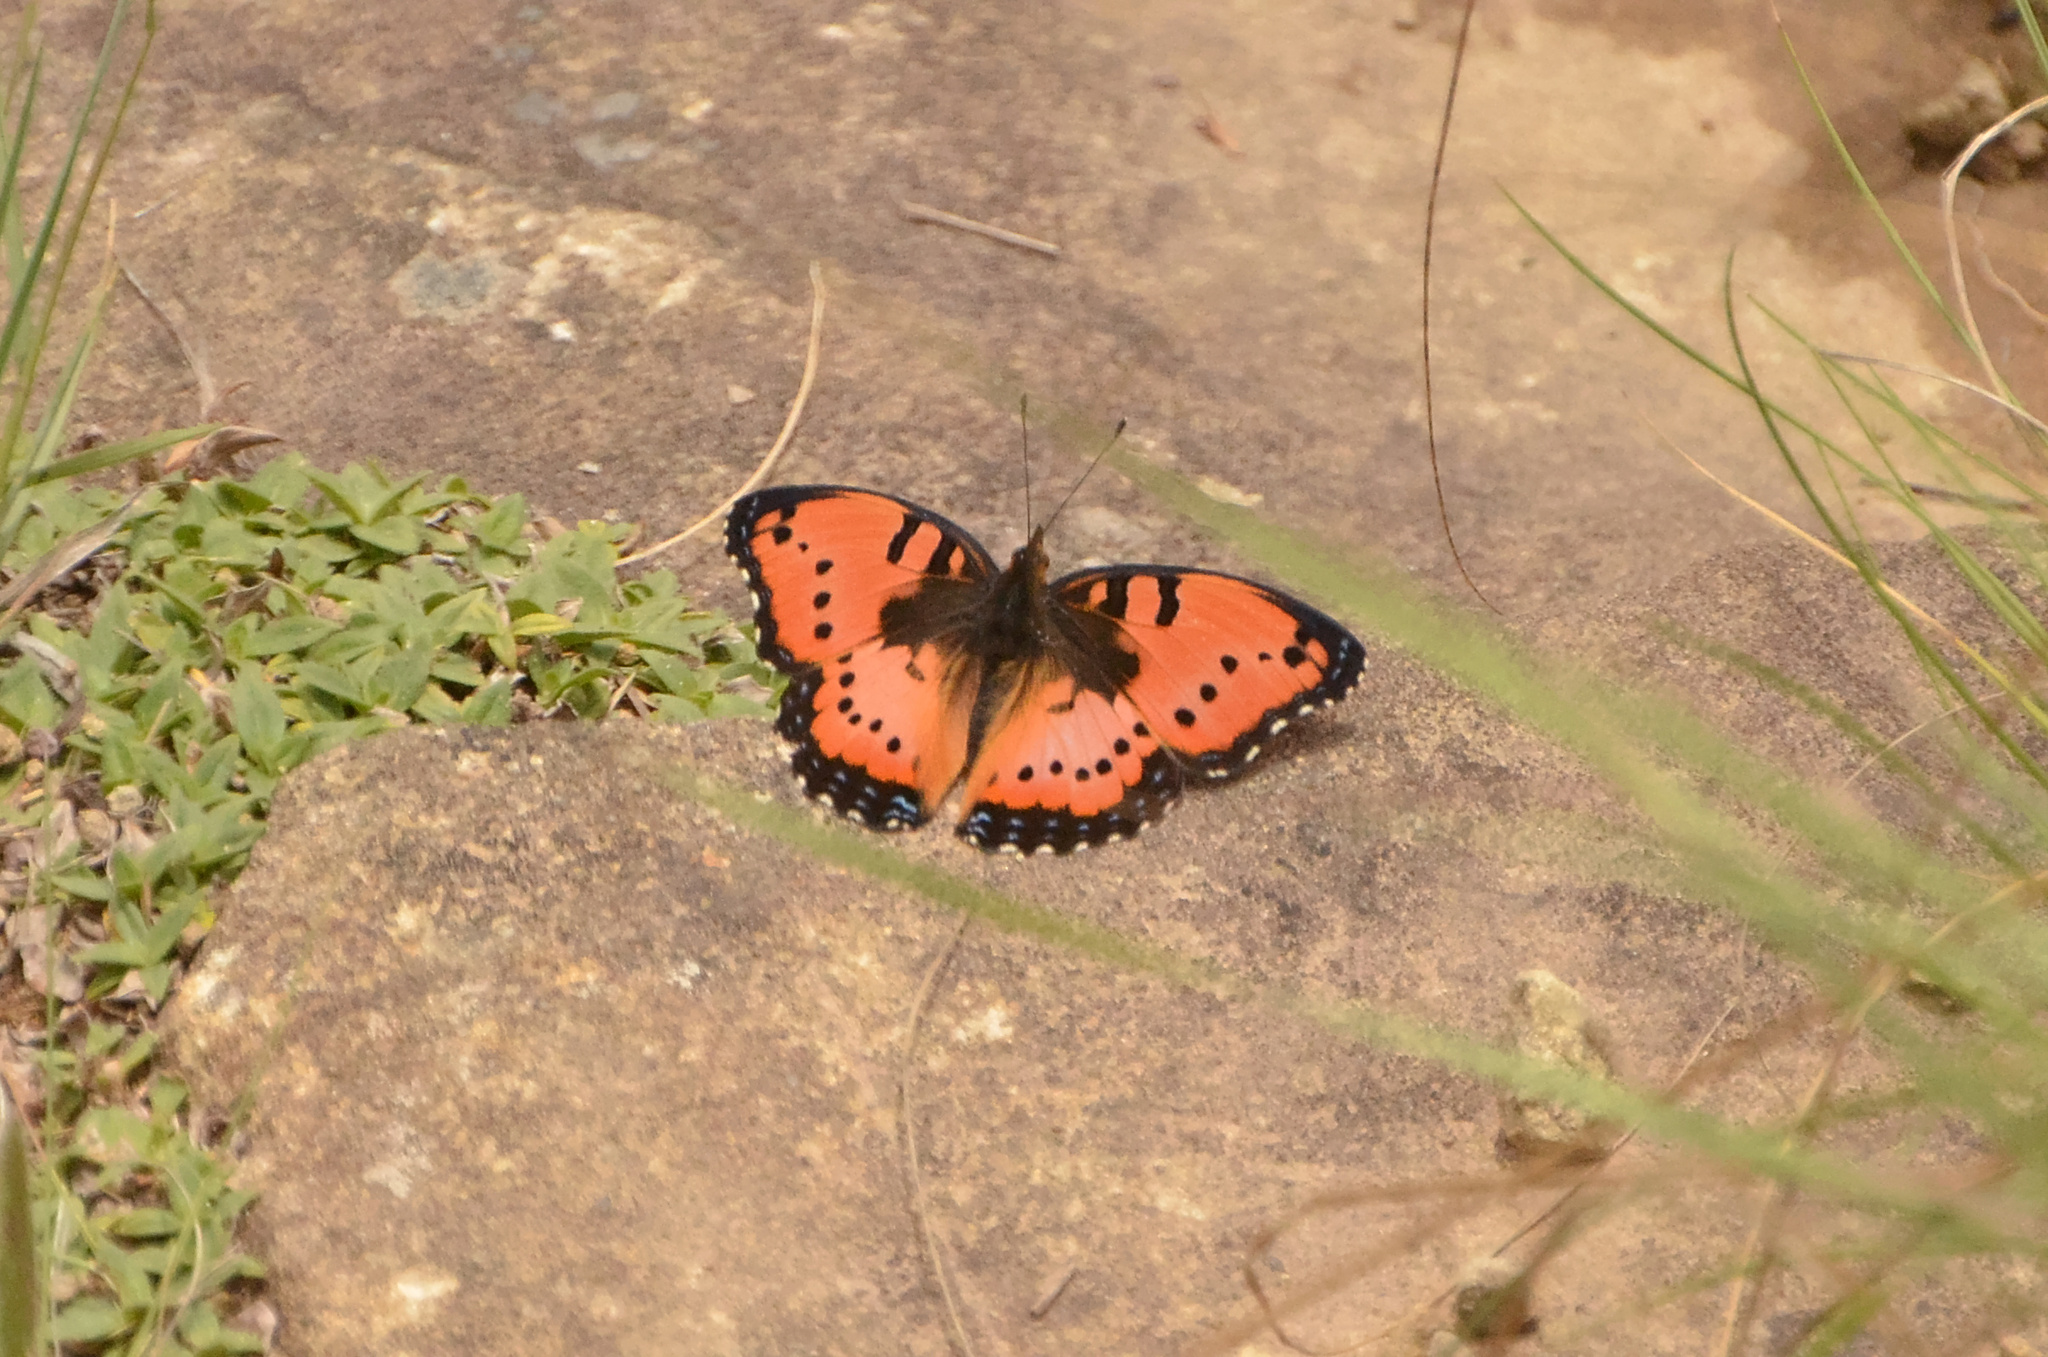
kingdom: Animalia
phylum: Arthropoda
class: Insecta
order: Lepidoptera
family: Nymphalidae
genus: Precis
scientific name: Precis octavia
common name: Gaudy commodore
